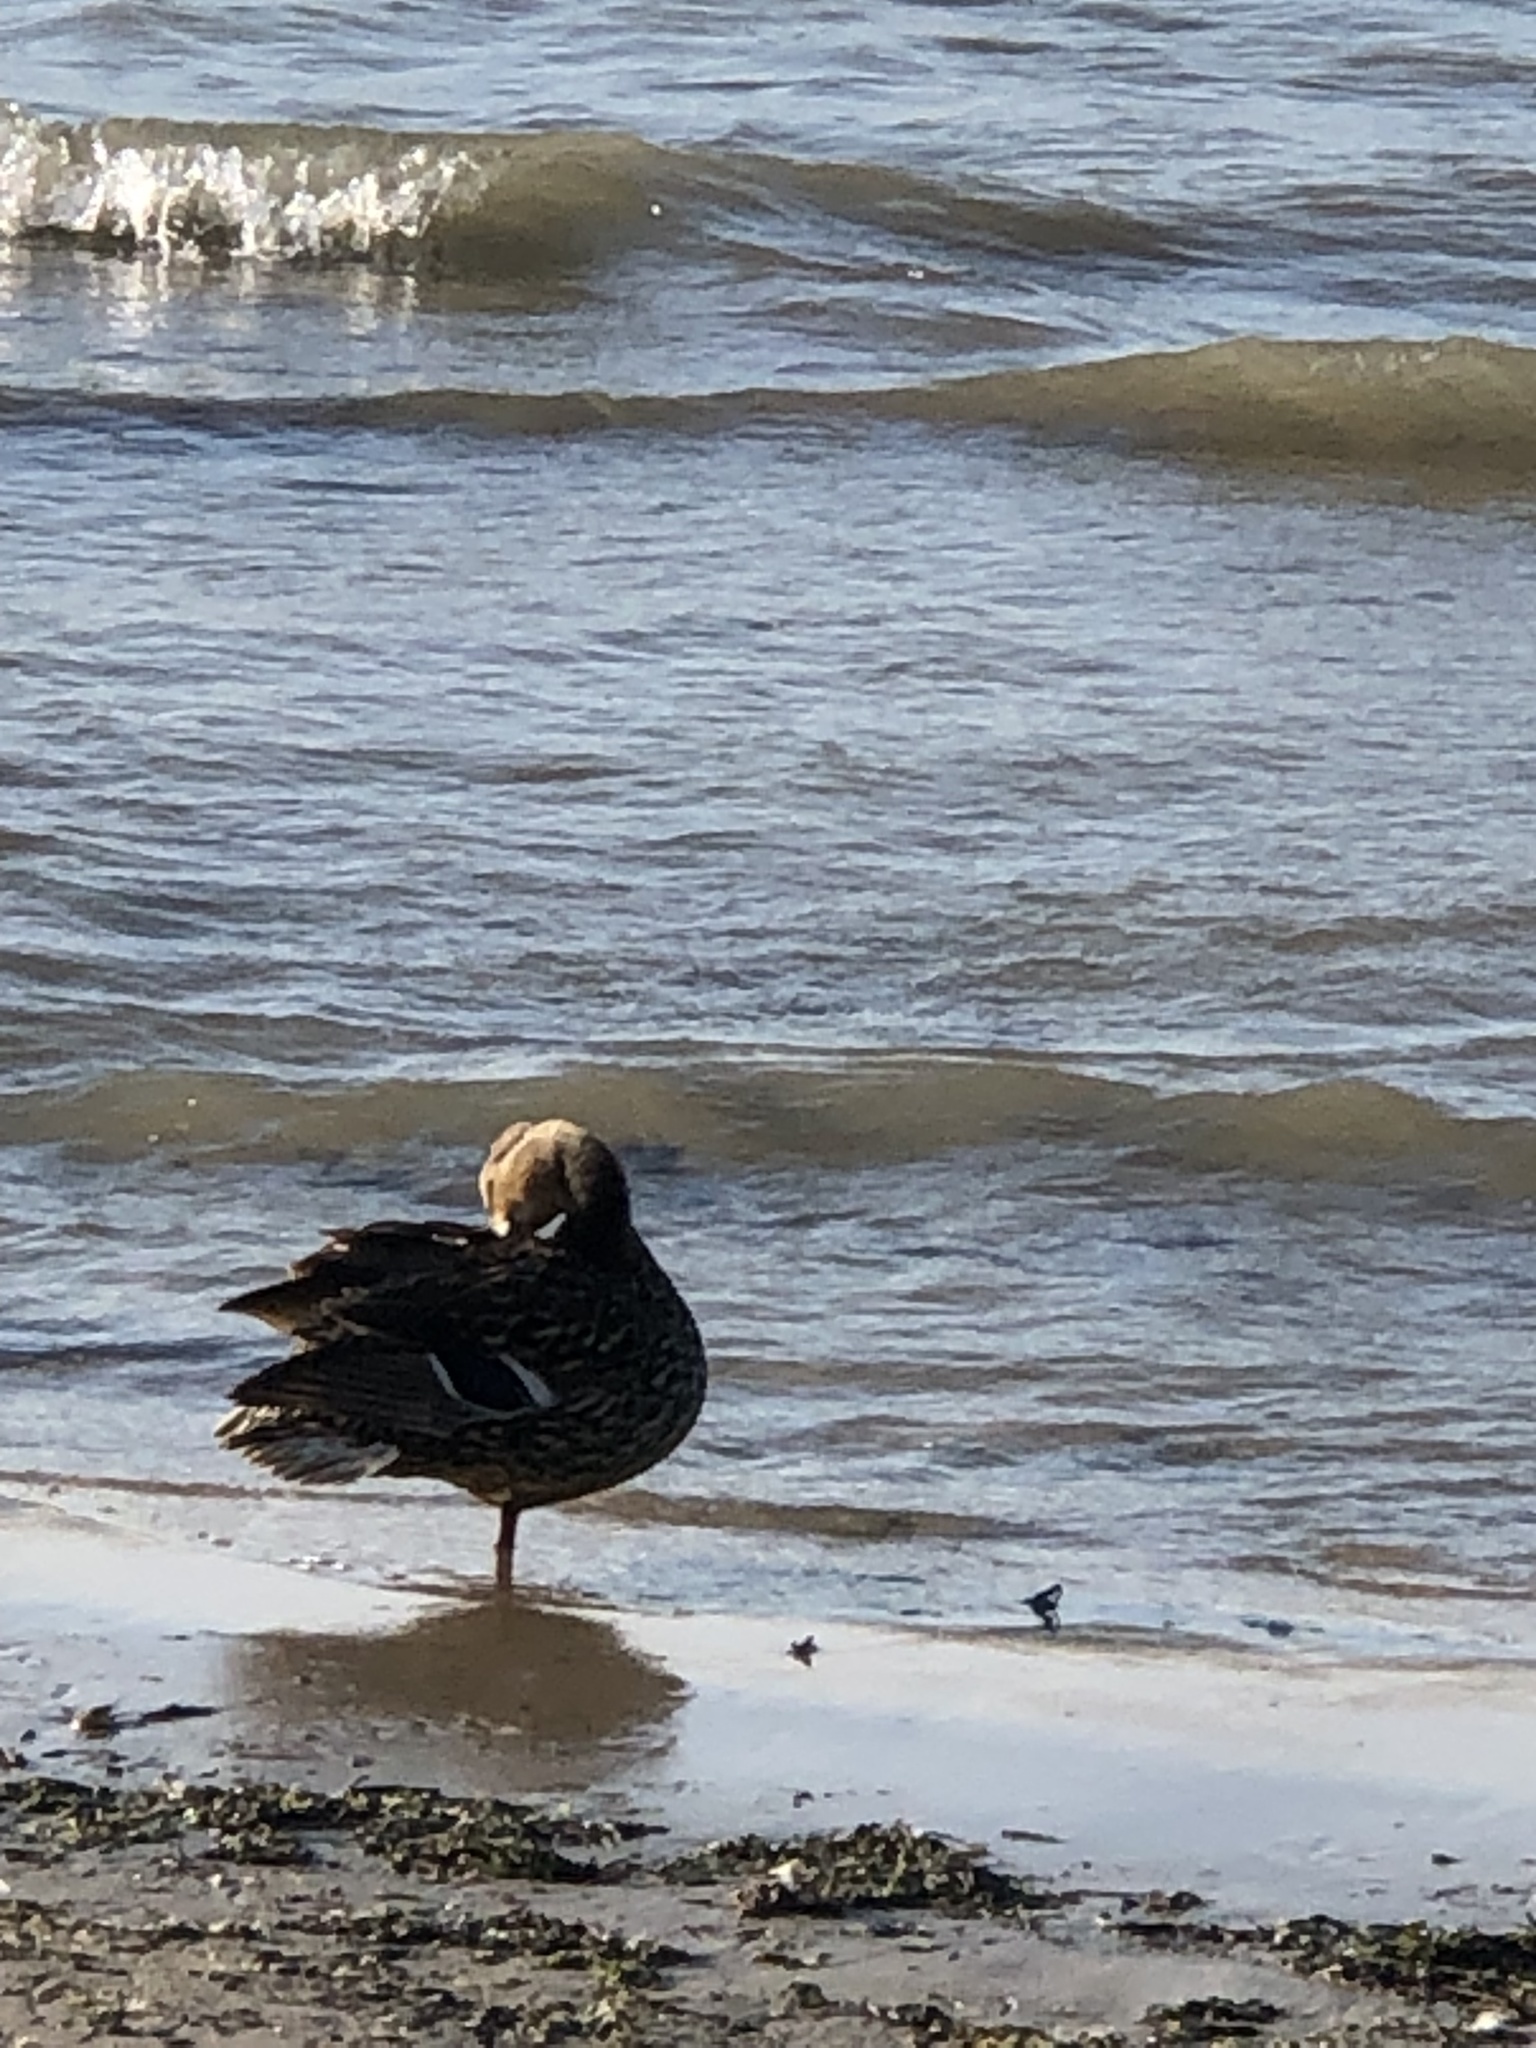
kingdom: Animalia
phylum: Chordata
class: Aves
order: Anseriformes
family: Anatidae
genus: Anas
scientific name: Anas platyrhynchos
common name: Mallard
